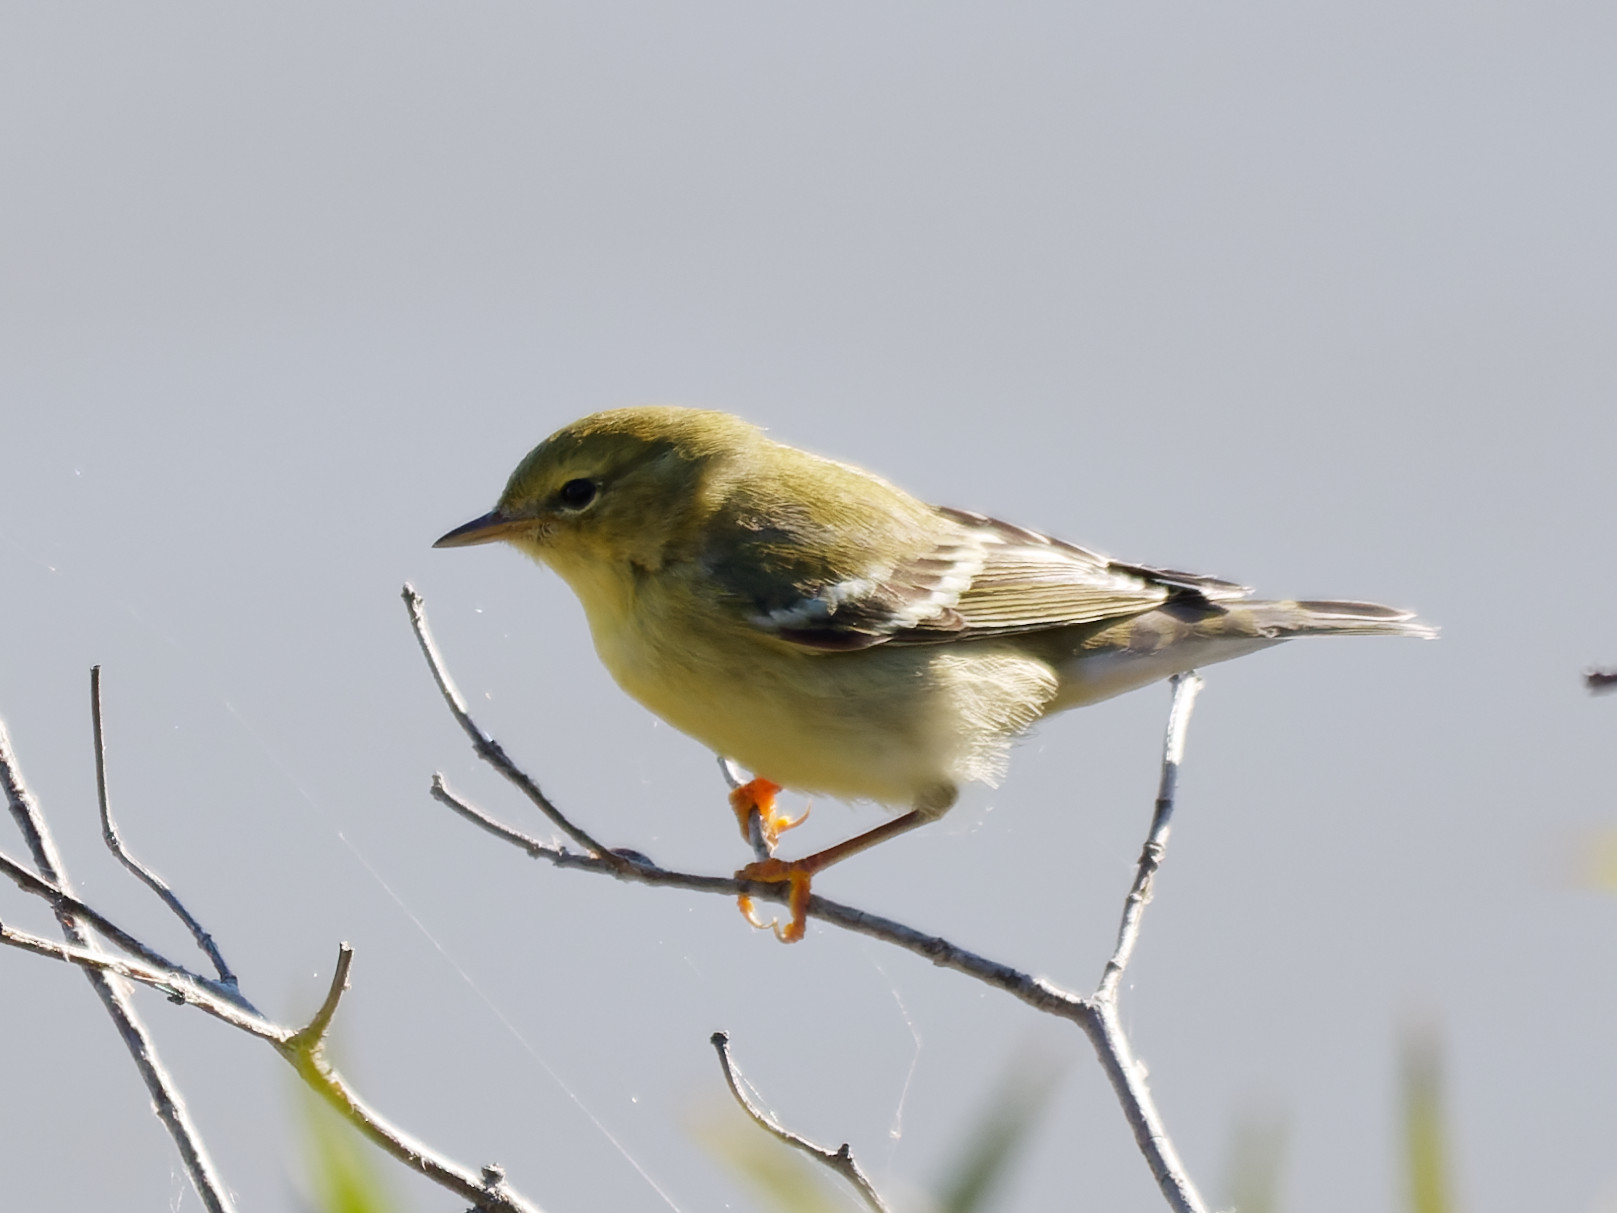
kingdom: Animalia
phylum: Chordata
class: Aves
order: Passeriformes
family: Parulidae
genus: Setophaga
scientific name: Setophaga striata
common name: Blackpoll warbler
